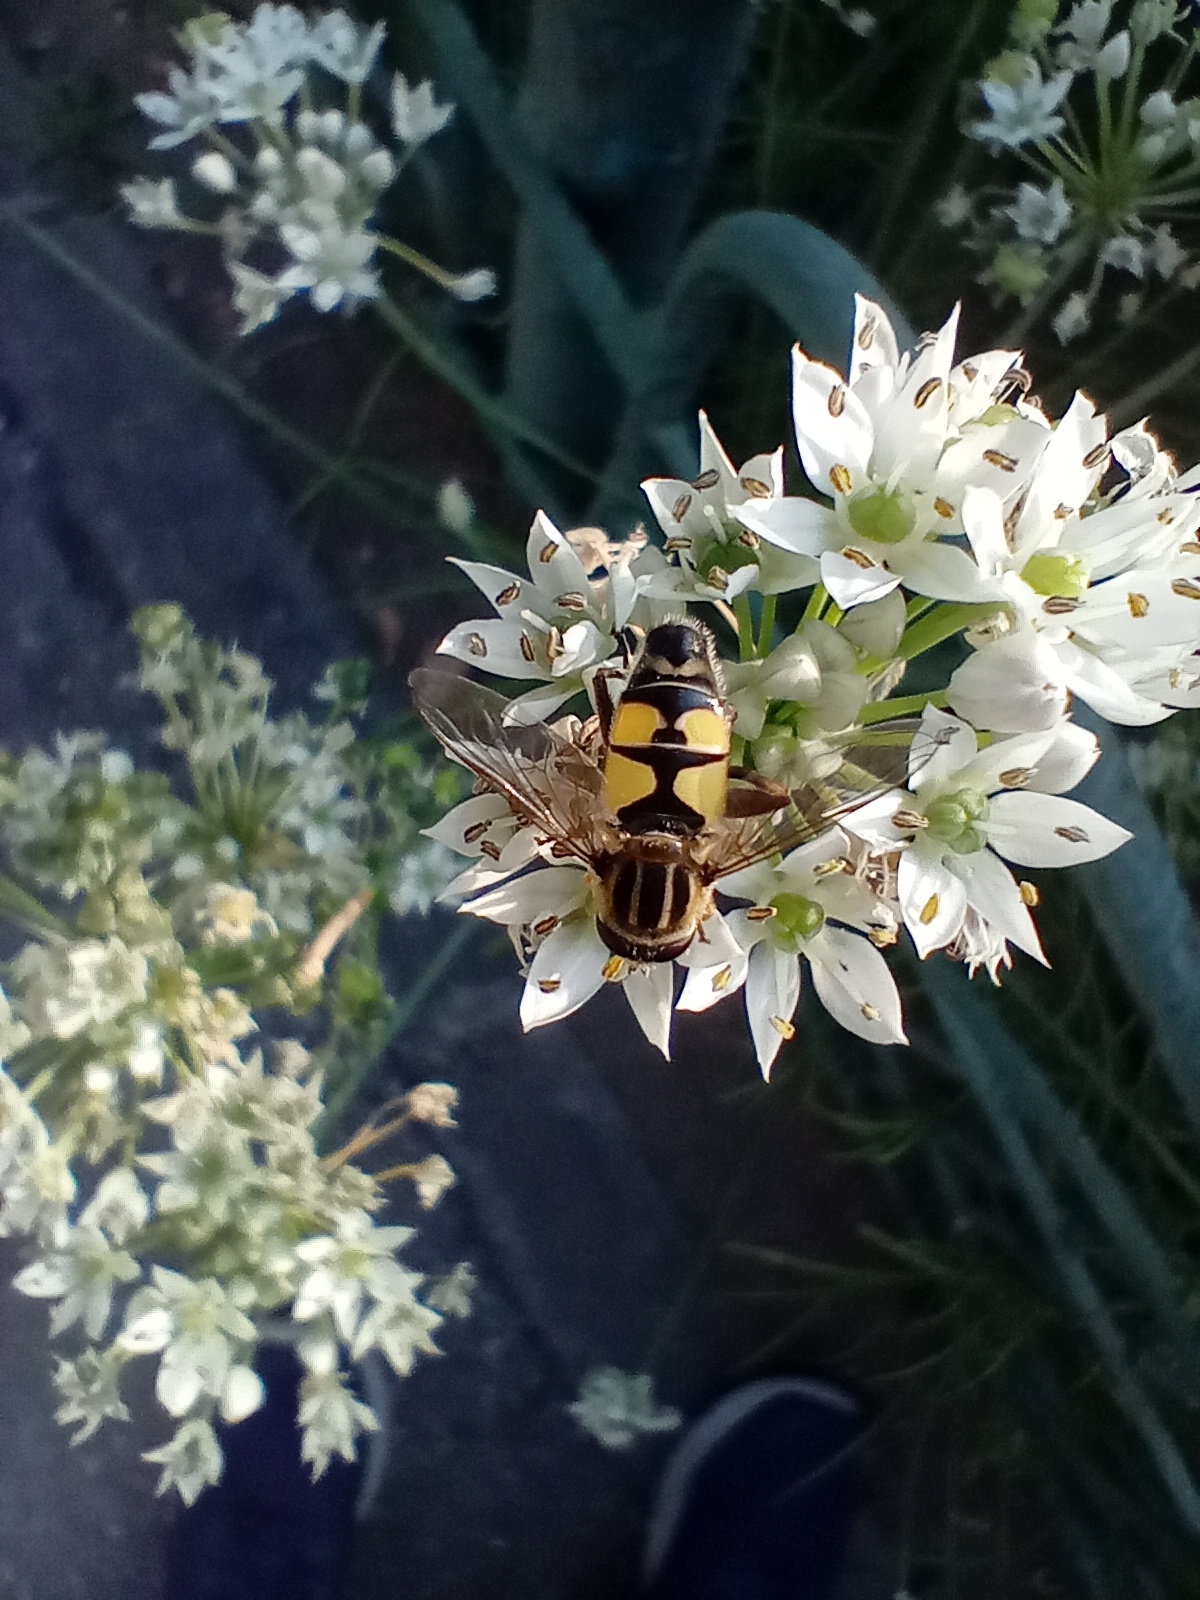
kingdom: Animalia
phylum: Arthropoda
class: Insecta
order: Diptera
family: Syrphidae
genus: Helophilus
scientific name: Helophilus trivittatus
